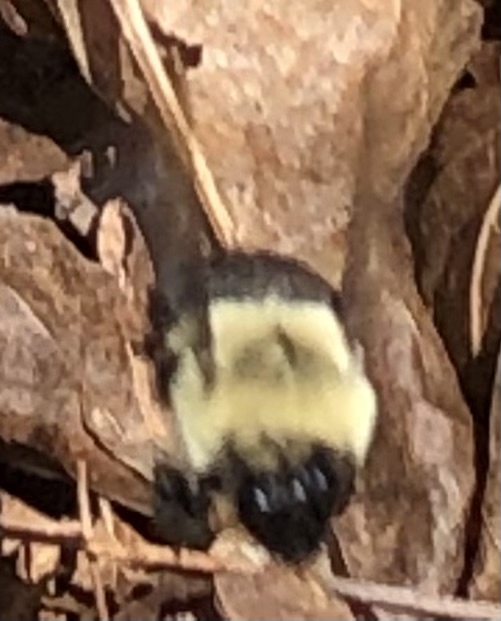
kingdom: Animalia
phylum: Arthropoda
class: Insecta
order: Hymenoptera
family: Apidae
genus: Bombus
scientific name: Bombus impatiens
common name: Common eastern bumble bee
